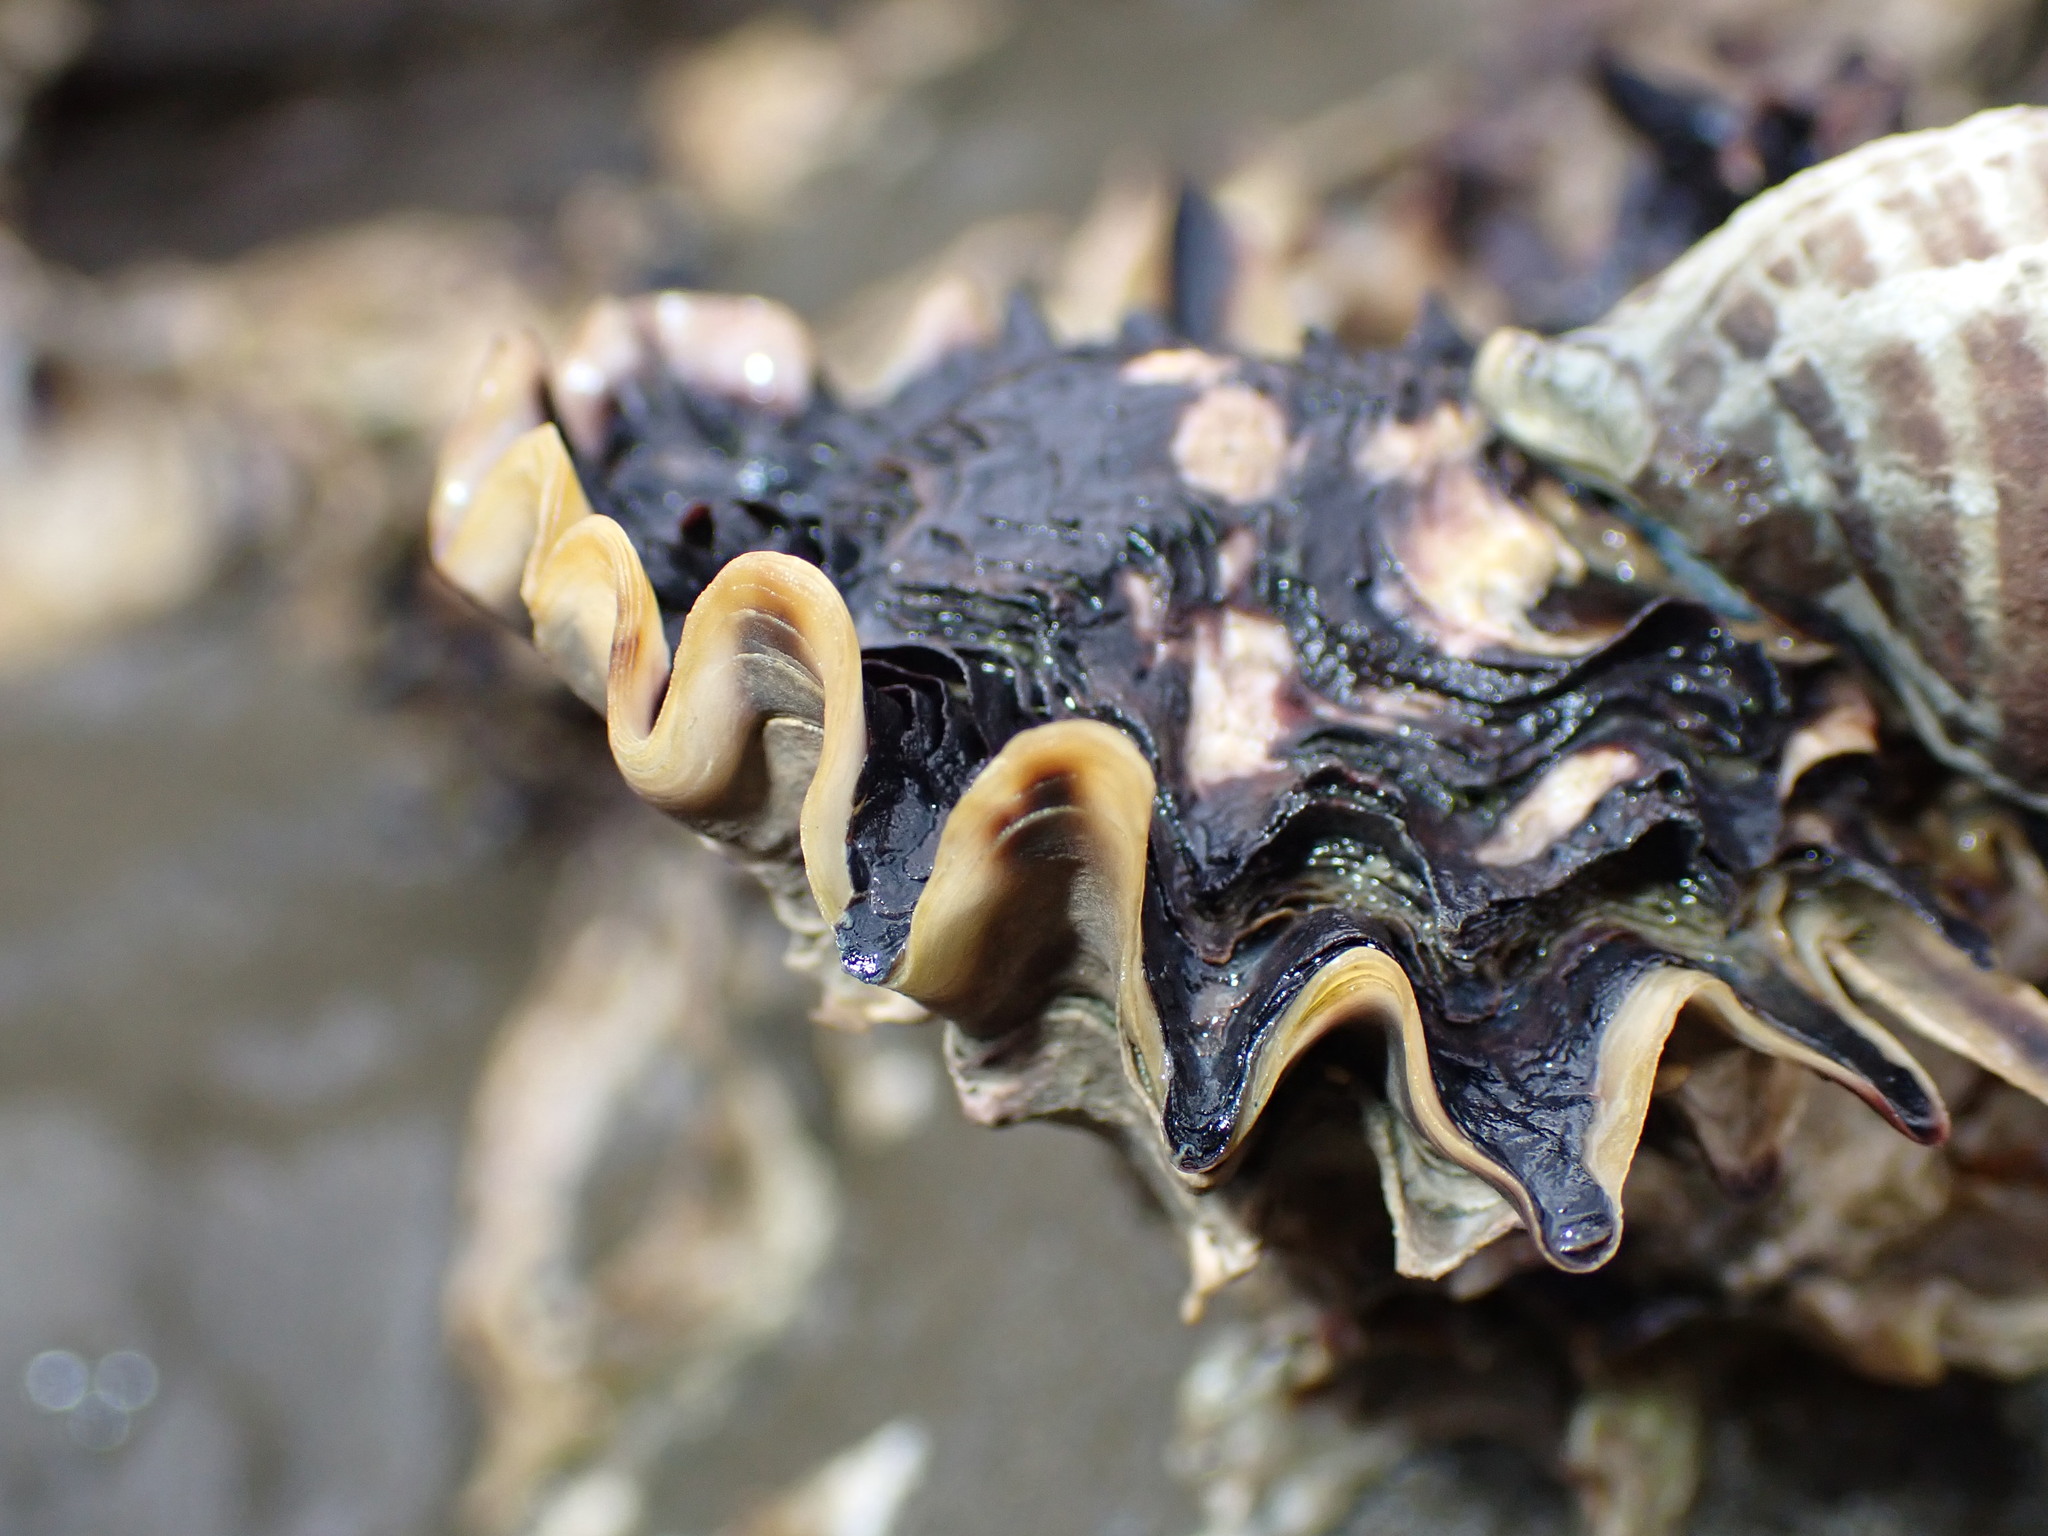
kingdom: Animalia
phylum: Mollusca
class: Bivalvia
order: Ostreida
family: Ostreidae
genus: Saccostrea
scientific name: Saccostrea glomerata
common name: Sydney cupped oyster
